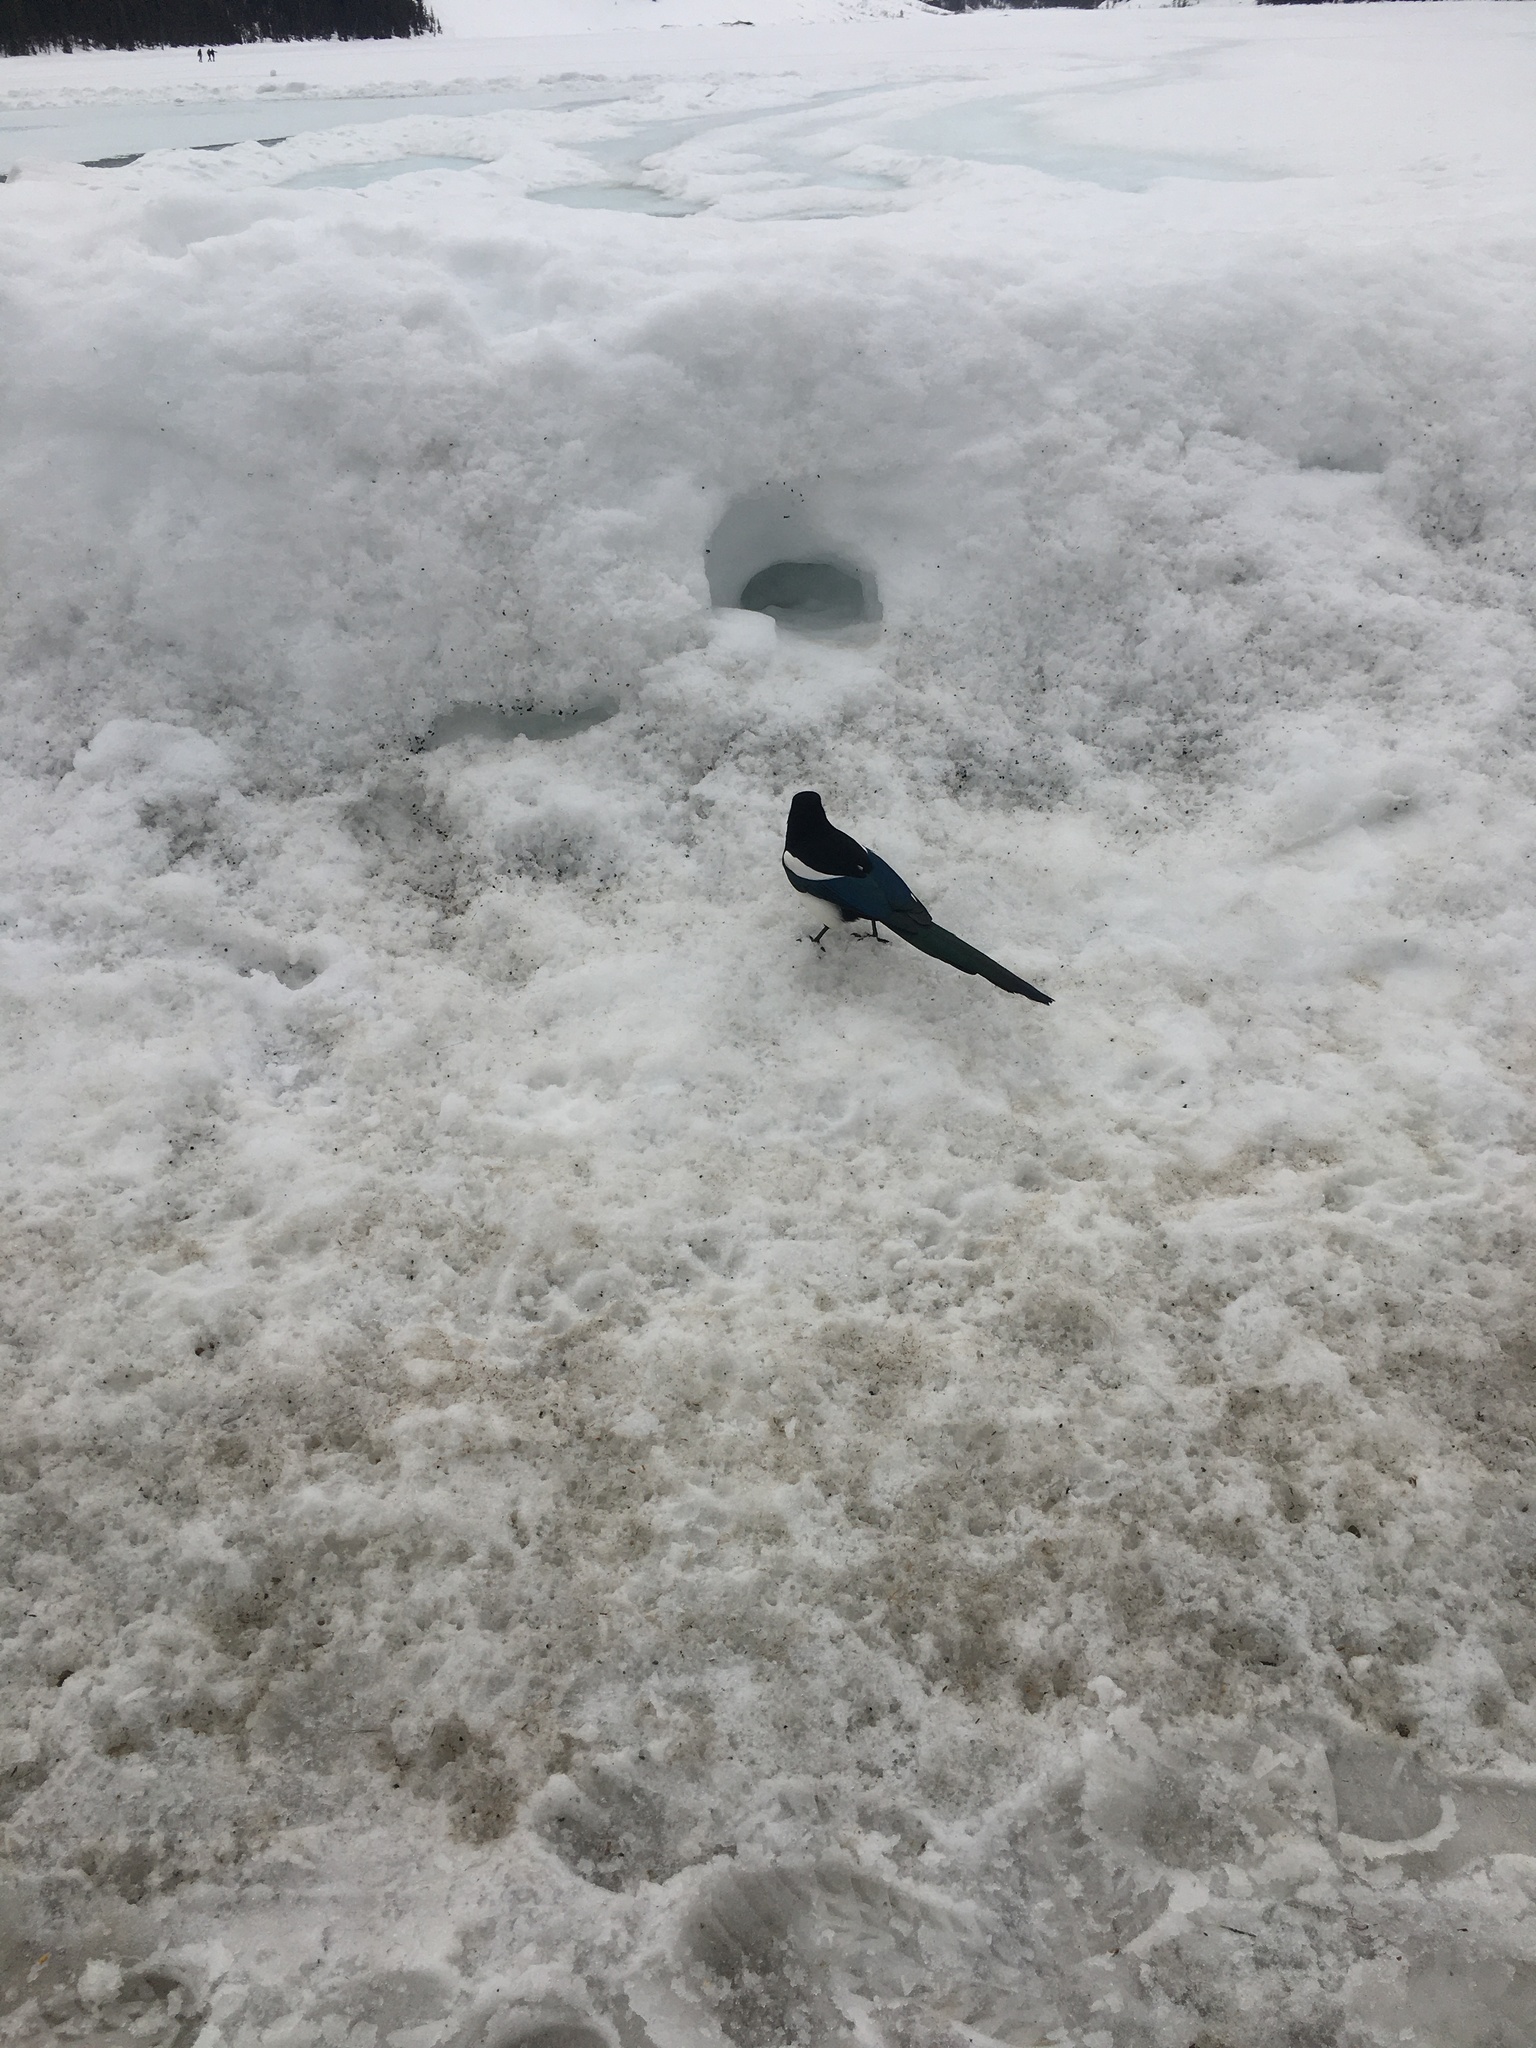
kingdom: Animalia
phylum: Chordata
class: Aves
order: Passeriformes
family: Corvidae
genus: Pica
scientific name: Pica hudsonia
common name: Black-billed magpie
